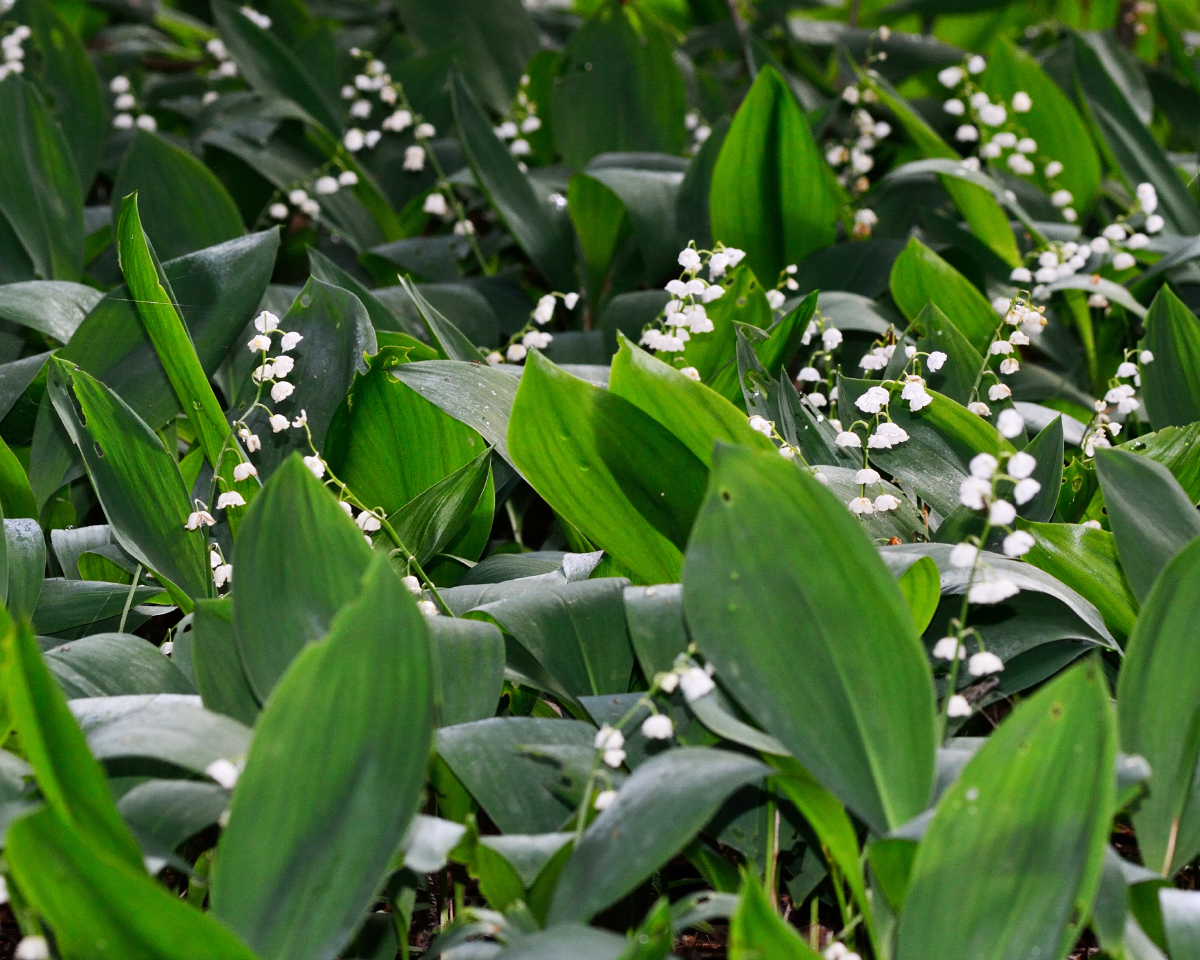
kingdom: Plantae
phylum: Tracheophyta
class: Liliopsida
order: Asparagales
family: Asparagaceae
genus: Convallaria
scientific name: Convallaria majalis
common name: Lily-of-the-valley
